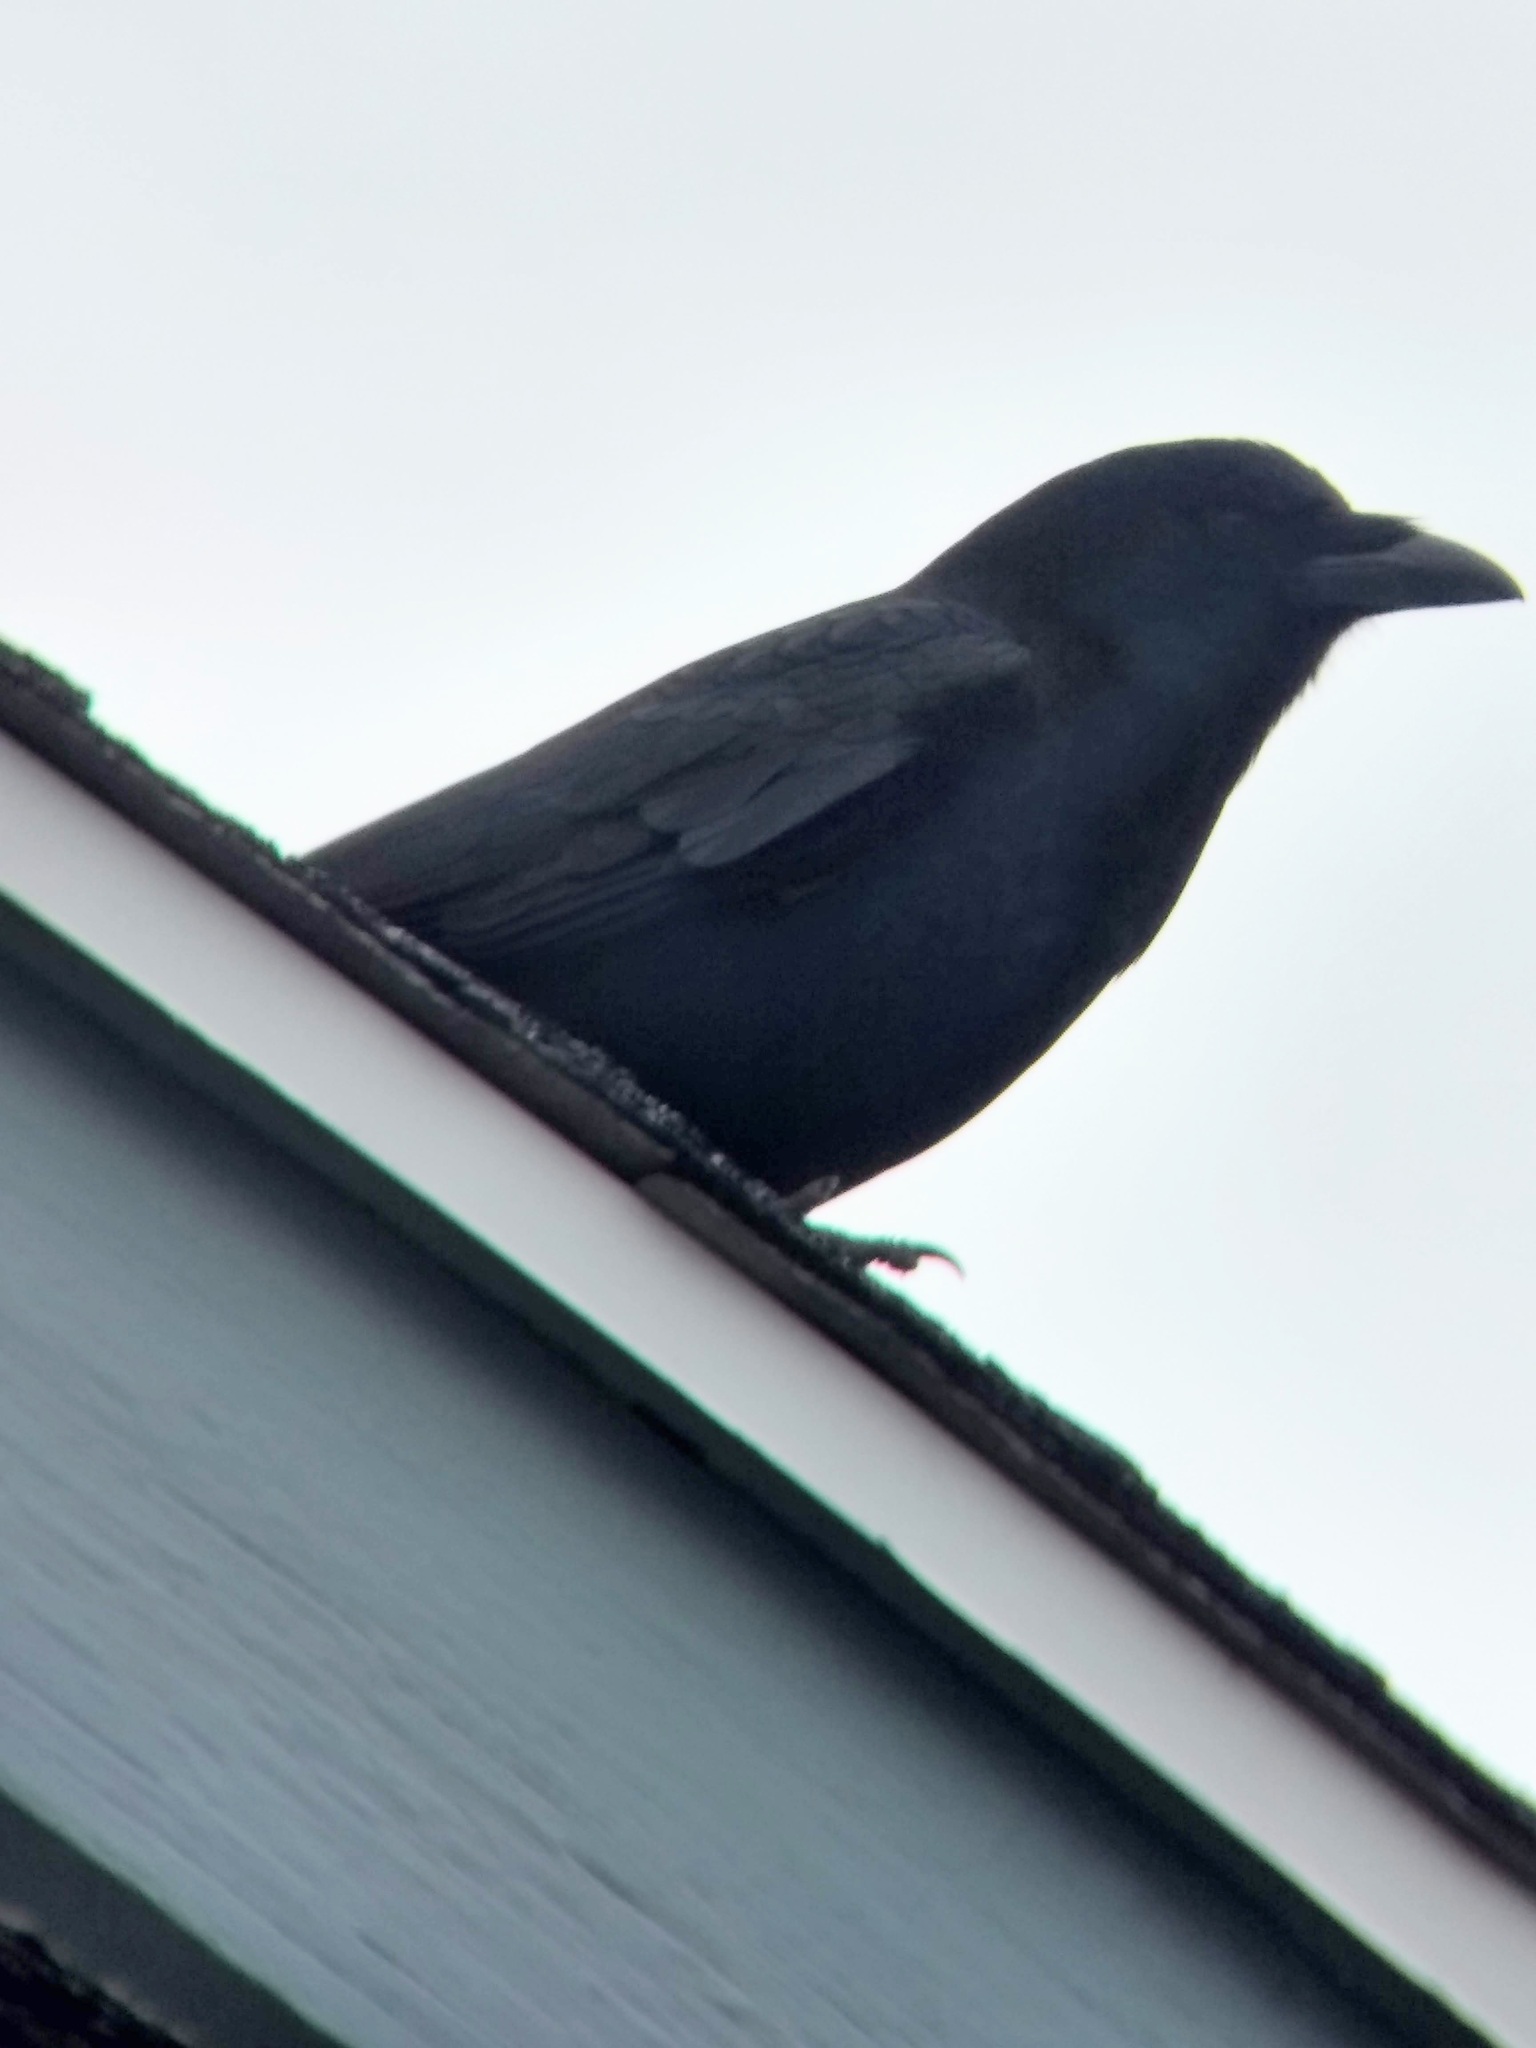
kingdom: Animalia
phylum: Chordata
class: Aves
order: Passeriformes
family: Corvidae
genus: Corvus
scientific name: Corvus brachyrhynchos
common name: American crow
